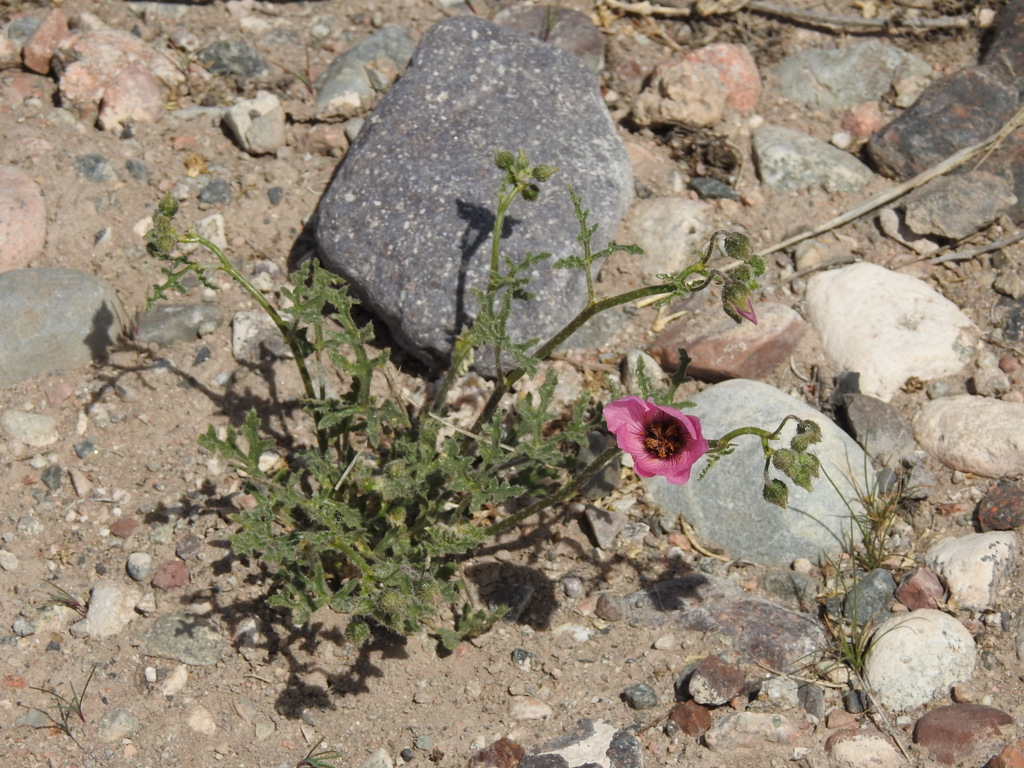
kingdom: Plantae
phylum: Tracheophyta
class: Magnoliopsida
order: Malvales
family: Malvaceae
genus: Lecanophora
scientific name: Lecanophora heterophylla
